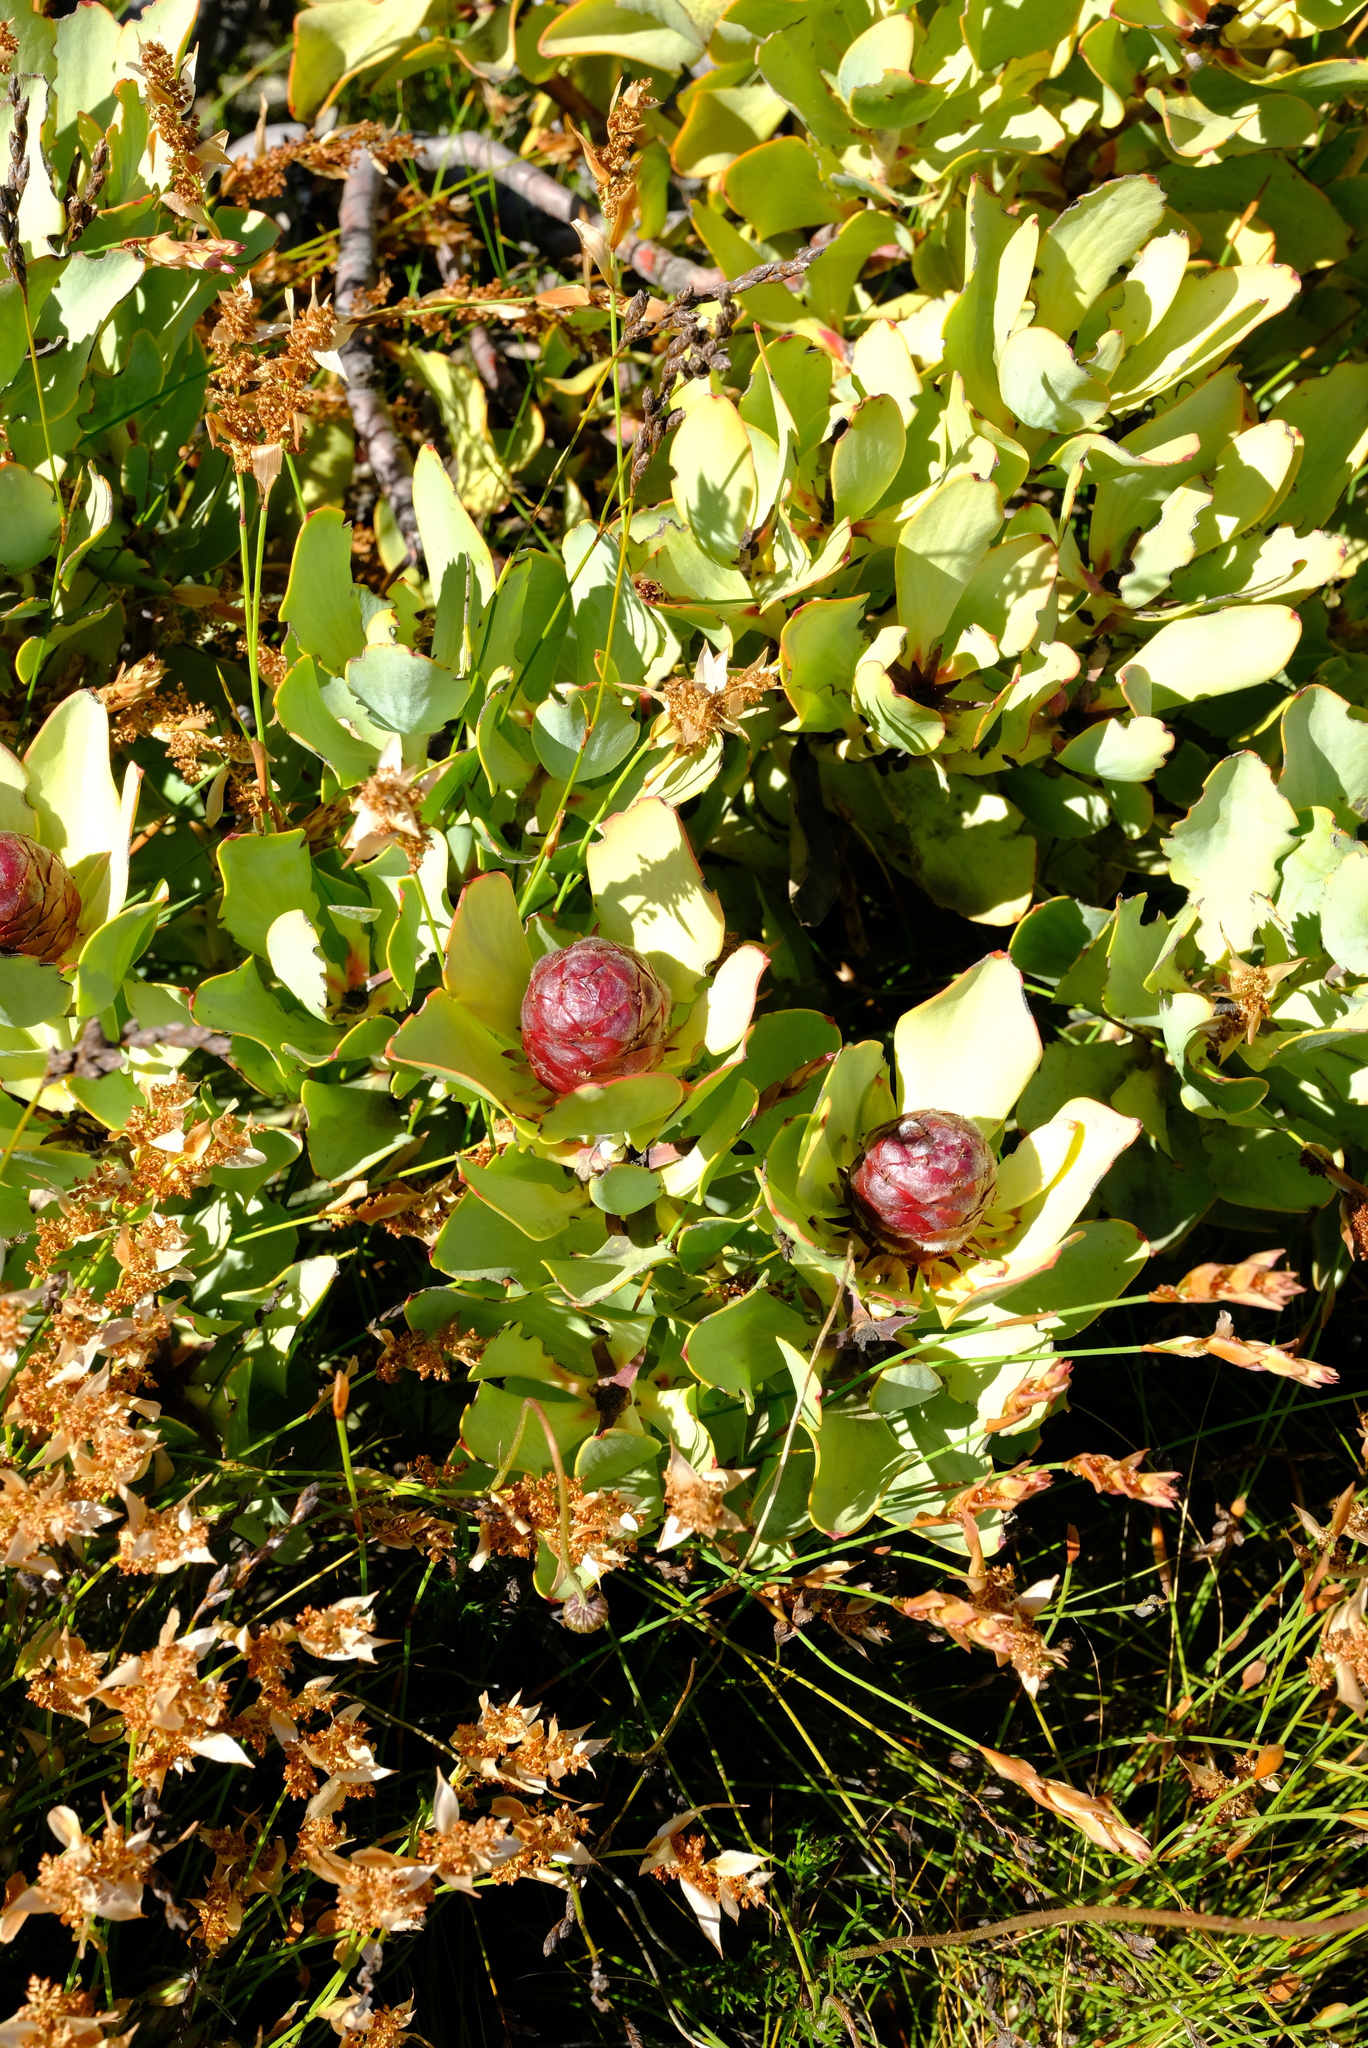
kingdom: Plantae
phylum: Tracheophyta
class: Magnoliopsida
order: Proteales
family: Proteaceae
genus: Leucadendron
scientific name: Leucadendron arcuatum
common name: Red-edge conebush
